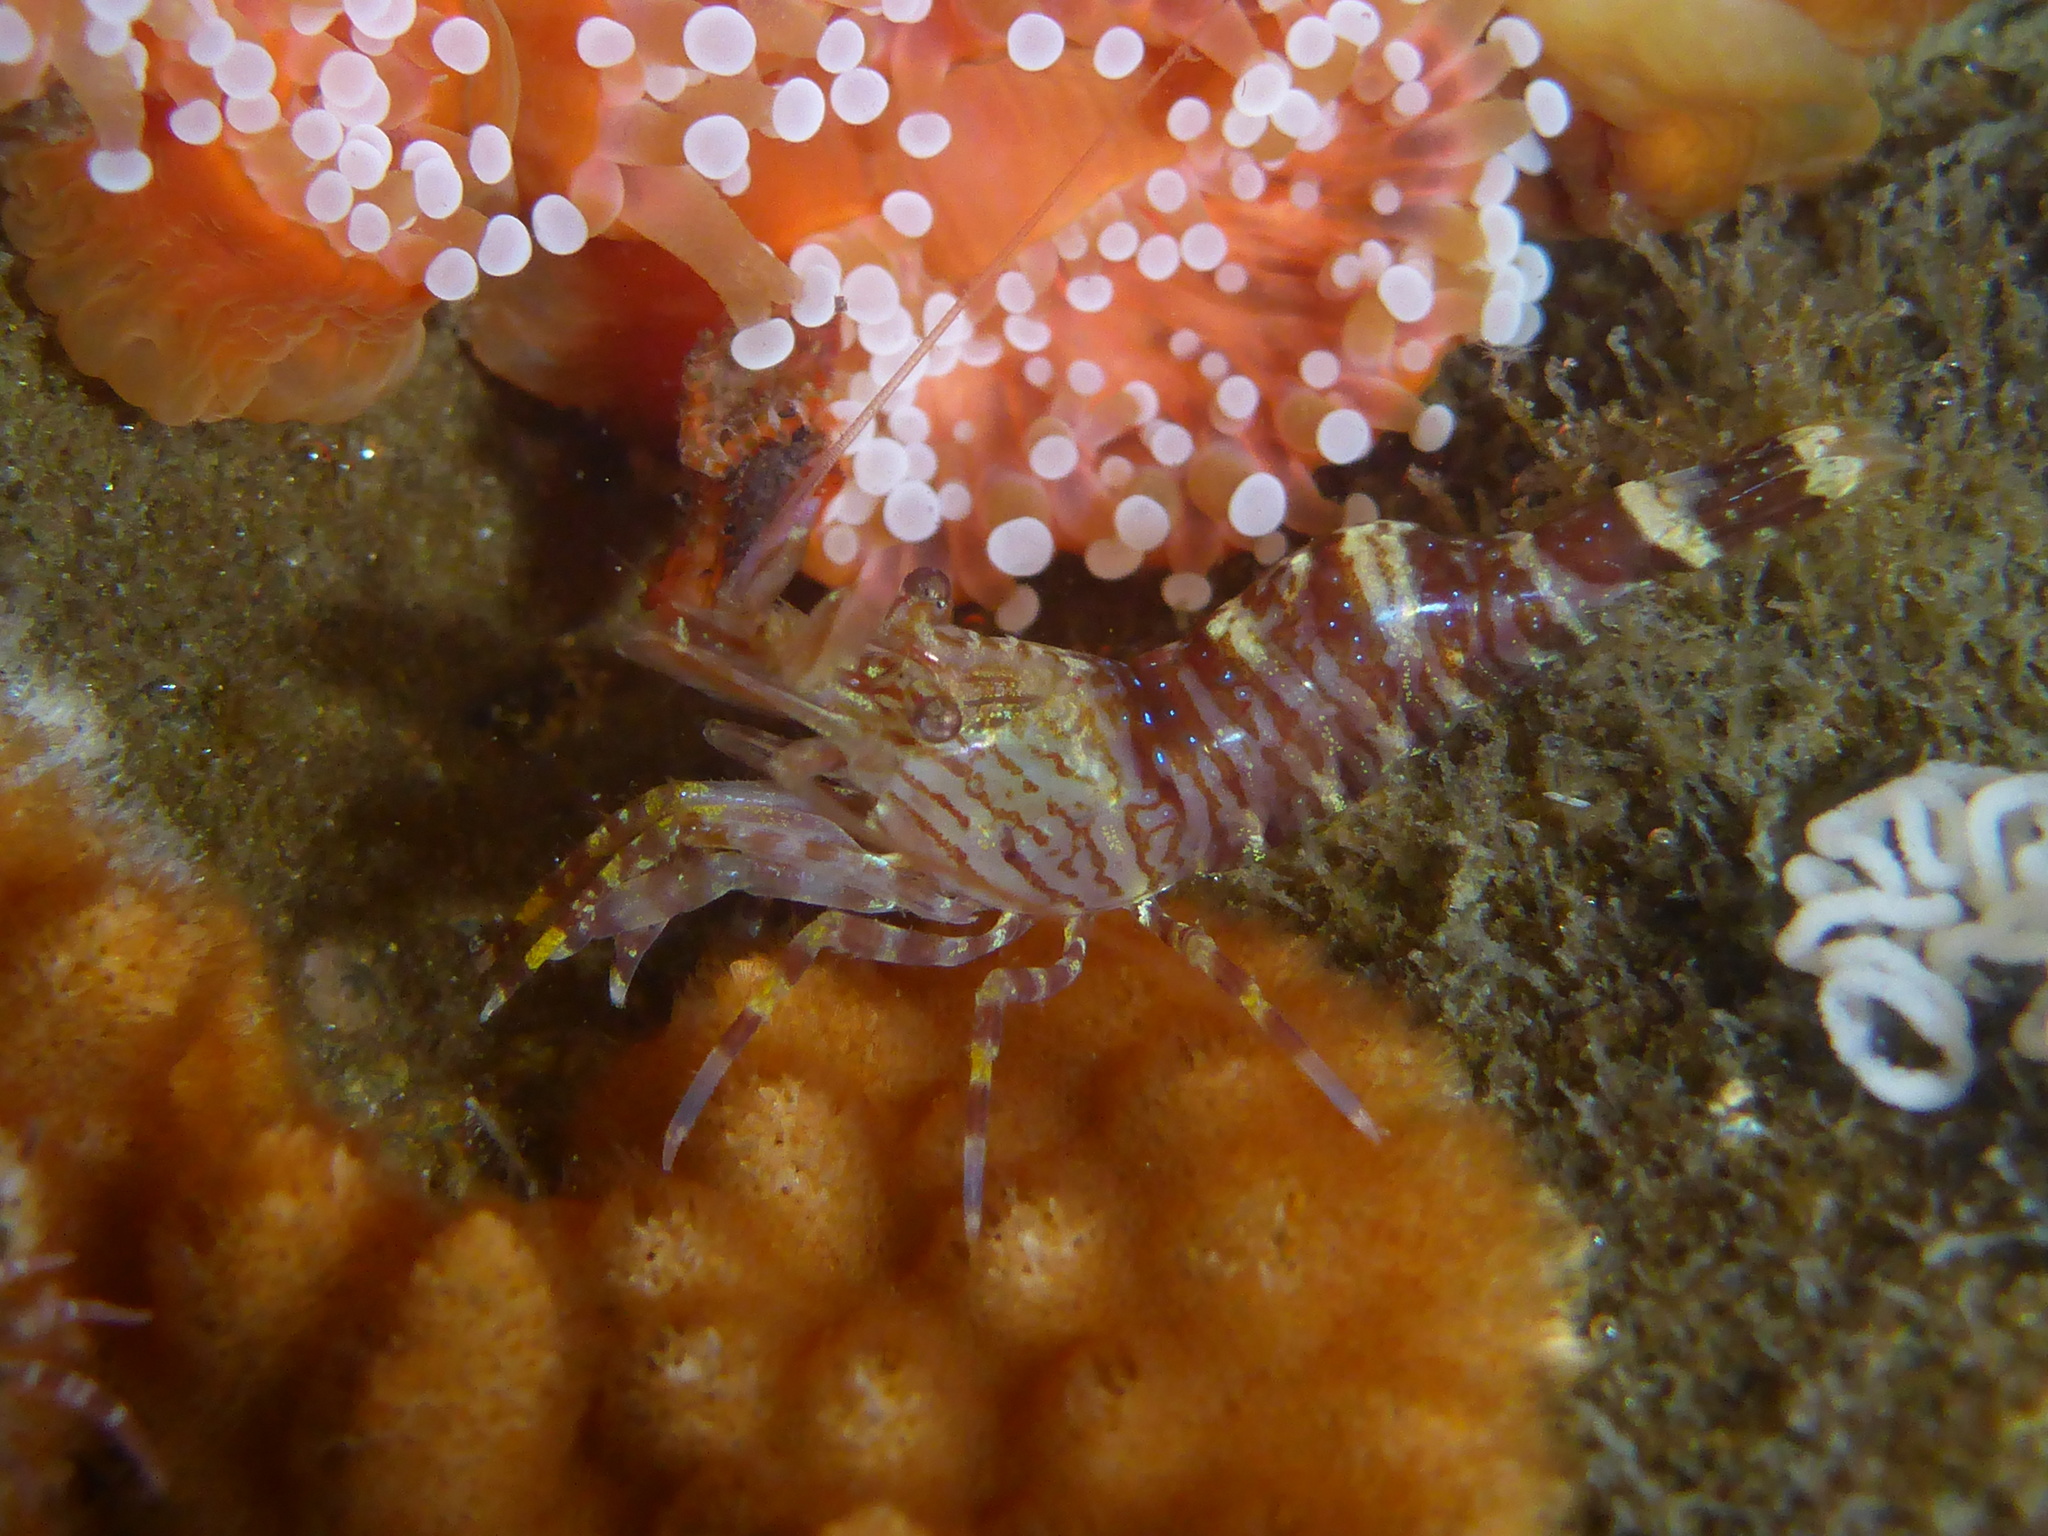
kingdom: Animalia
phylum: Arthropoda
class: Malacostraca
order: Decapoda
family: Thoridae
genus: Heptacarpus
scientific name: Heptacarpus brevirostris
